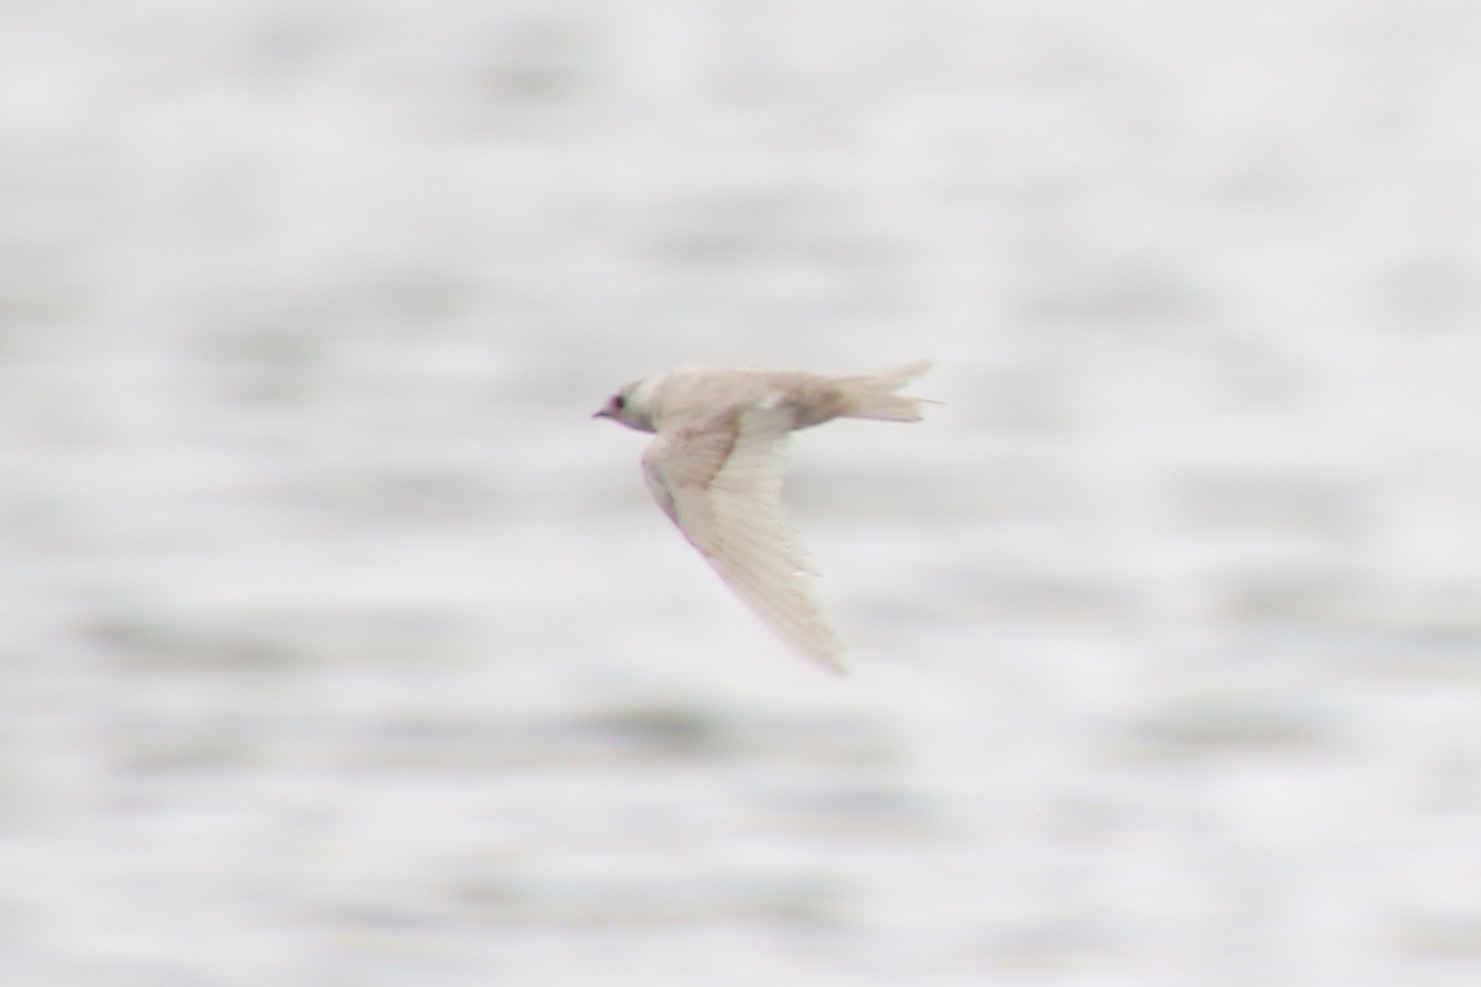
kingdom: Animalia
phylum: Chordata
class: Aves
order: Passeriformes
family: Hirundinidae
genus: Riparia
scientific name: Riparia riparia
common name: Sand martin
